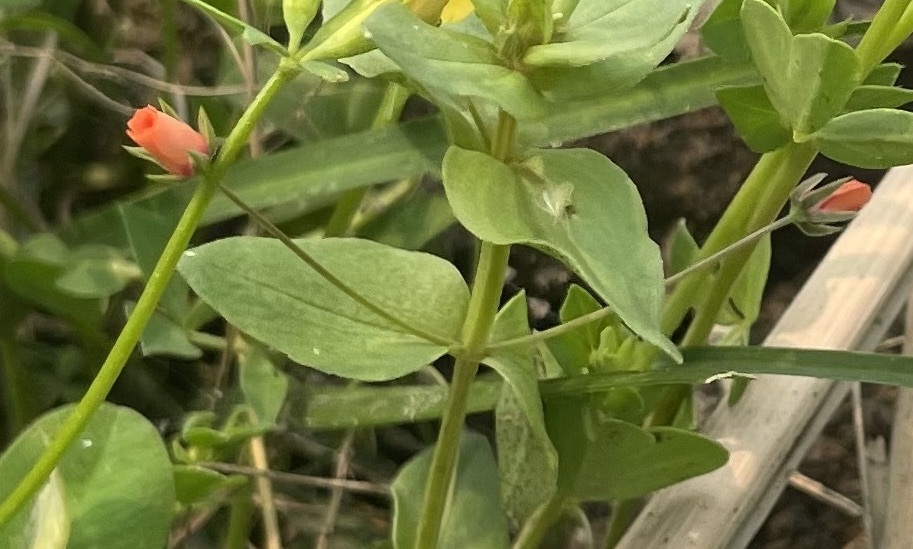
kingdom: Plantae
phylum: Tracheophyta
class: Magnoliopsida
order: Ericales
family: Primulaceae
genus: Lysimachia
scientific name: Lysimachia arvensis
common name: Scarlet pimpernel
